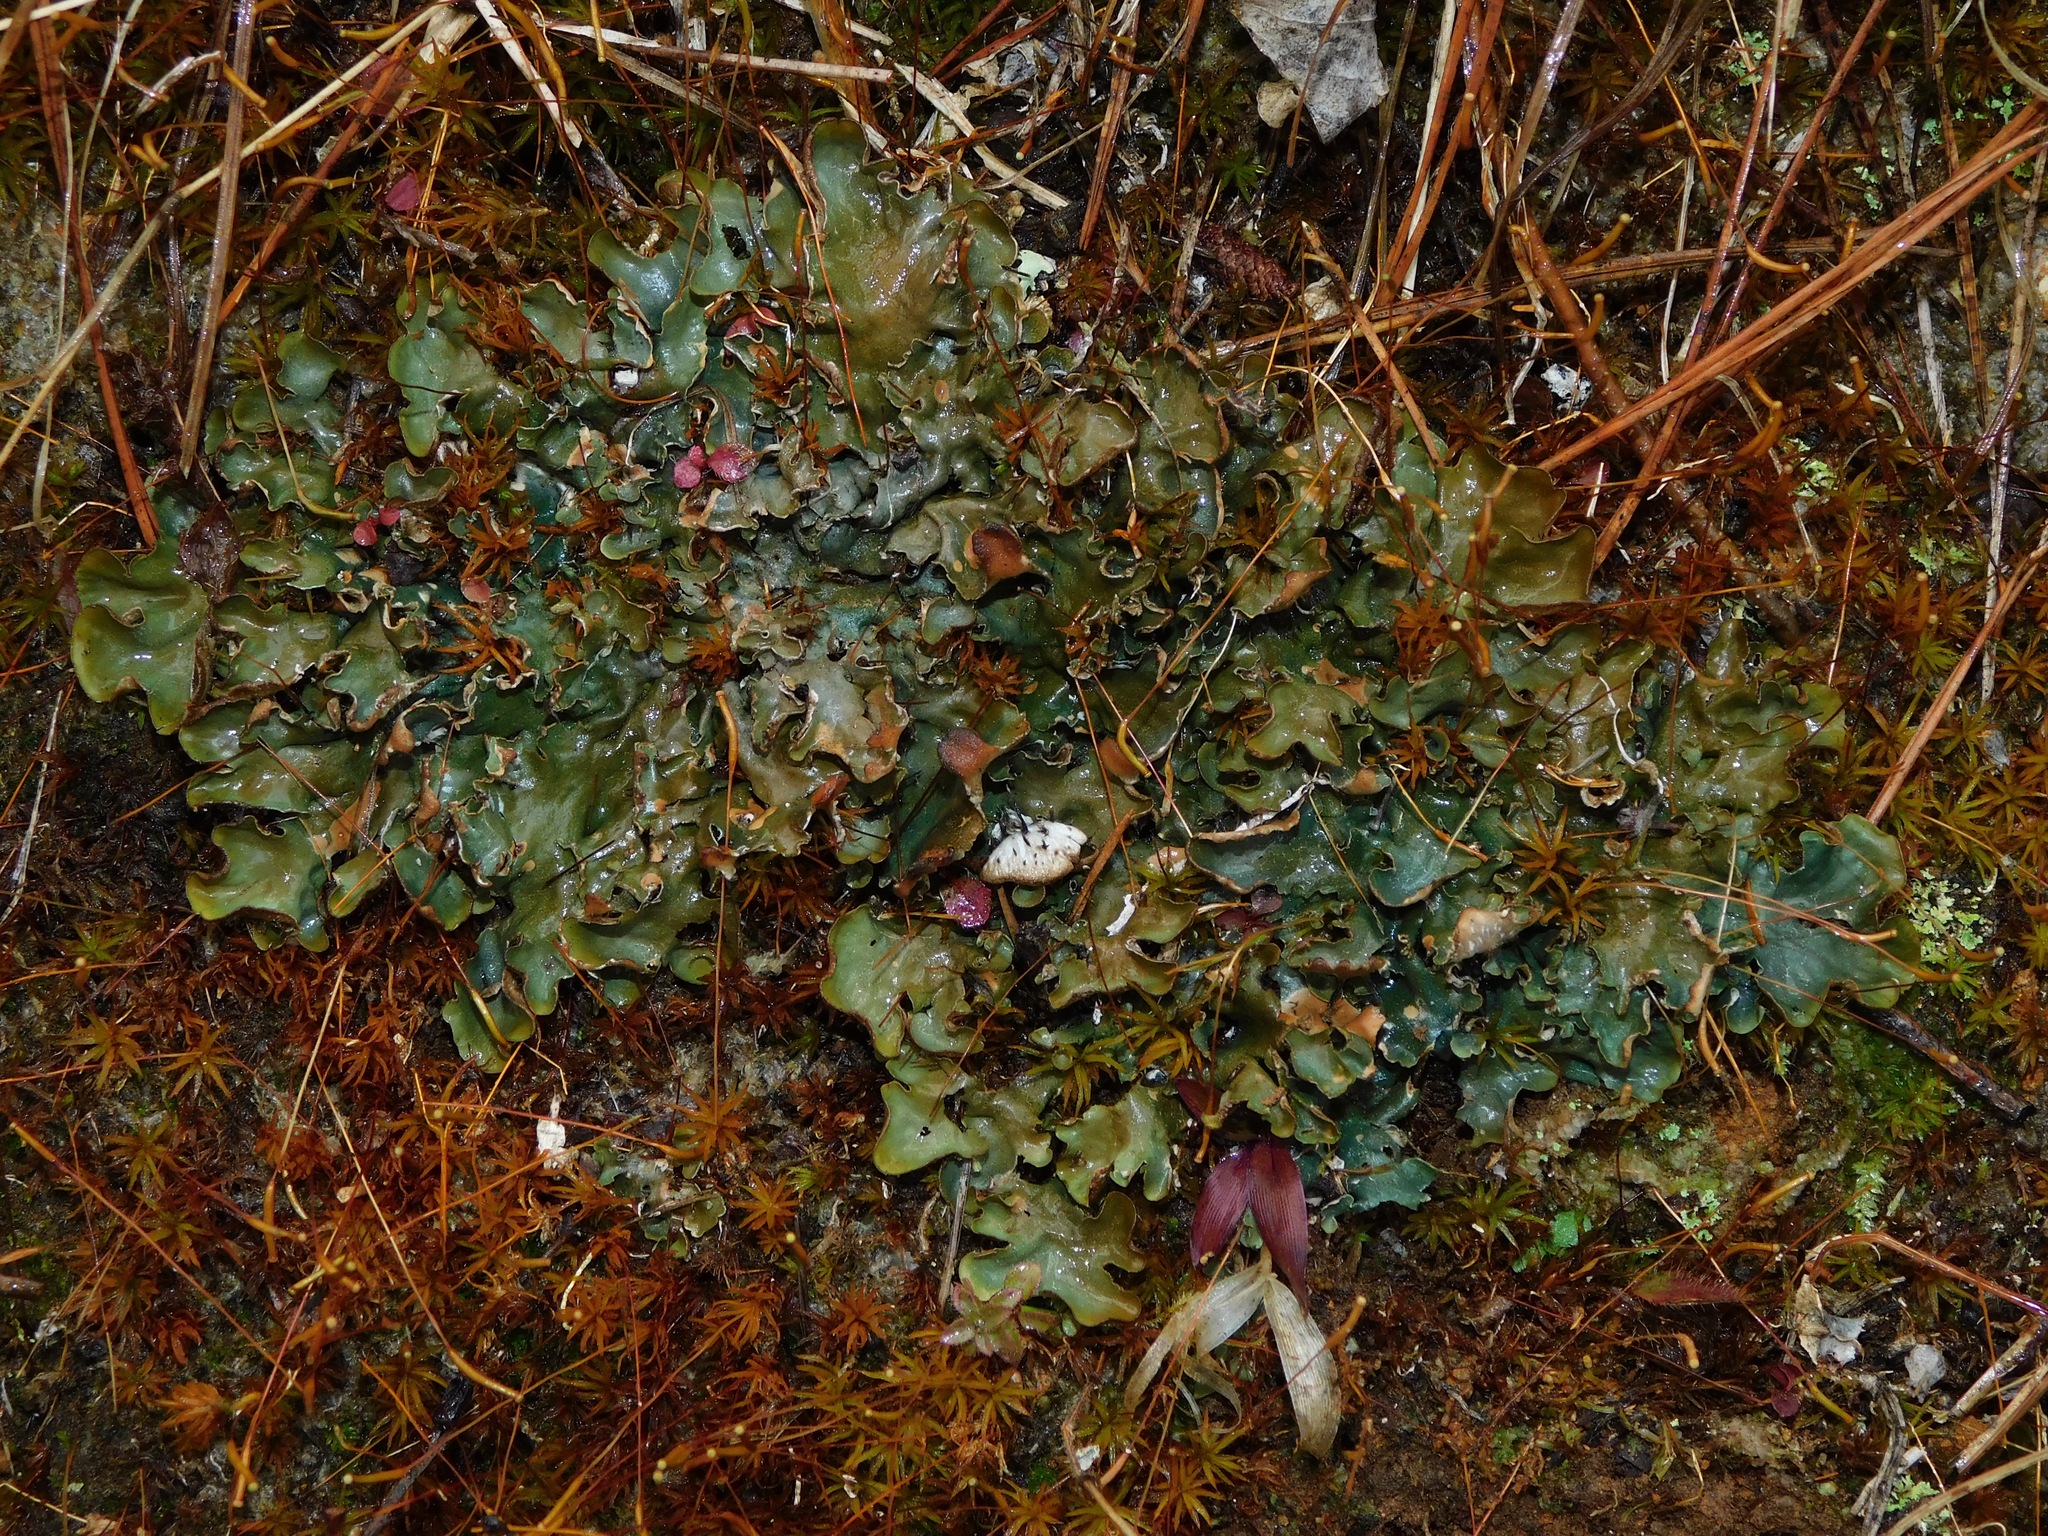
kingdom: Fungi
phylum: Ascomycota
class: Lecanoromycetes
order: Peltigerales
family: Peltigeraceae
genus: Peltigera
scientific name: Peltigera neopolydactyla
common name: Carpet pelt
